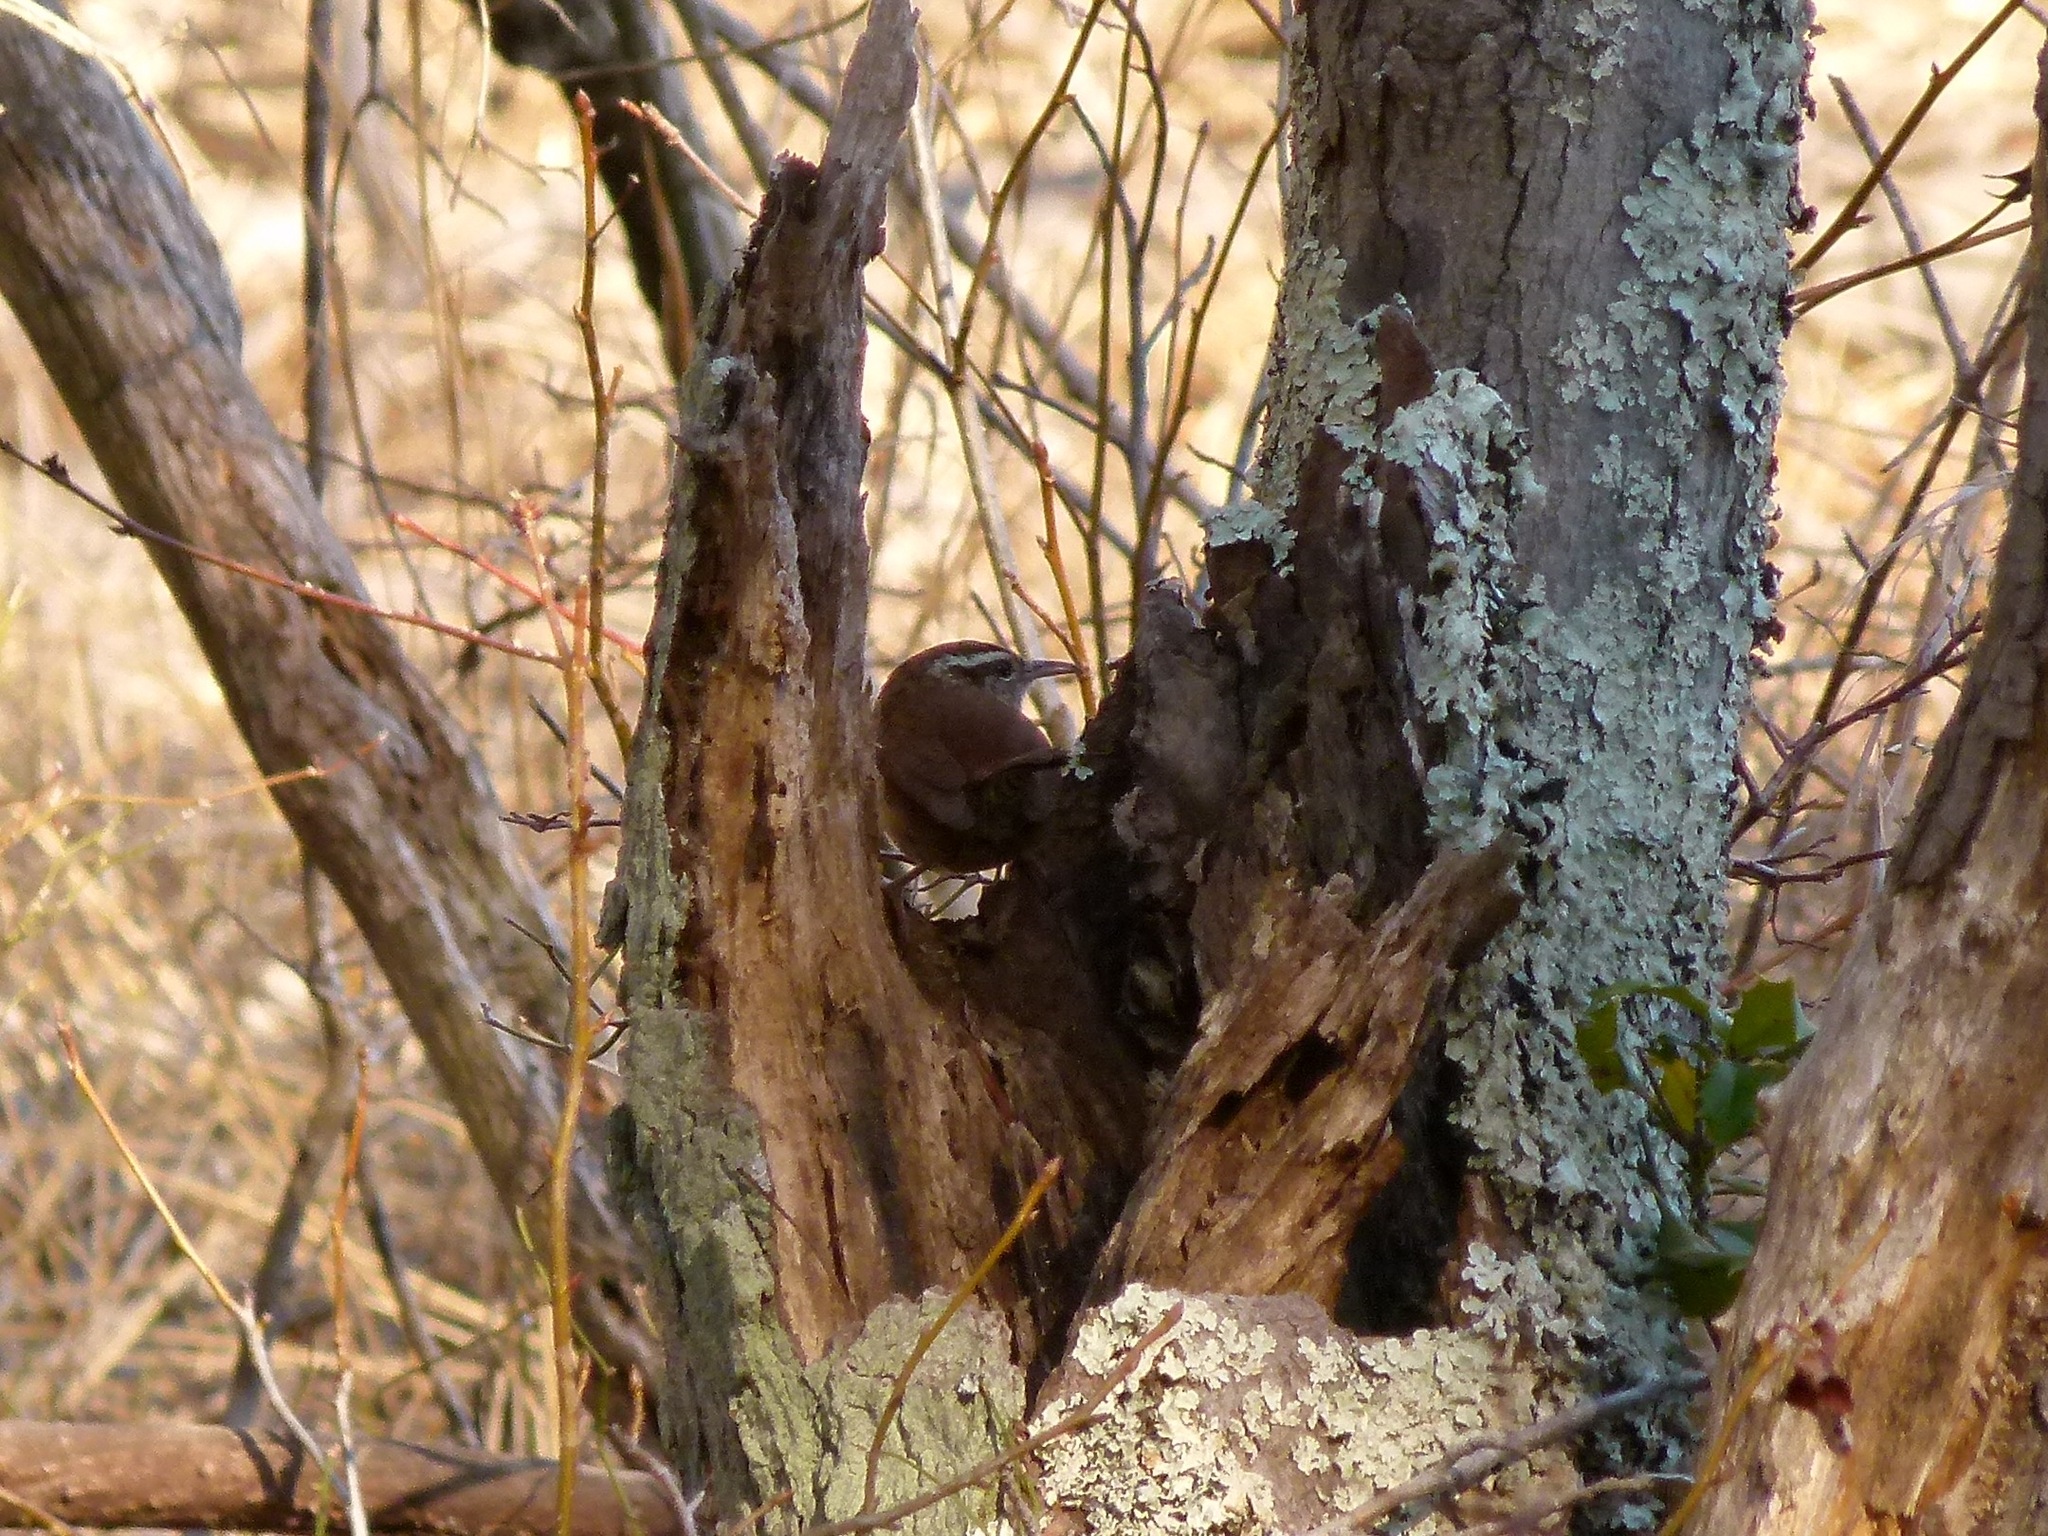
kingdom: Animalia
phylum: Chordata
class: Aves
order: Passeriformes
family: Troglodytidae
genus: Thryothorus
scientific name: Thryothorus ludovicianus
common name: Carolina wren
